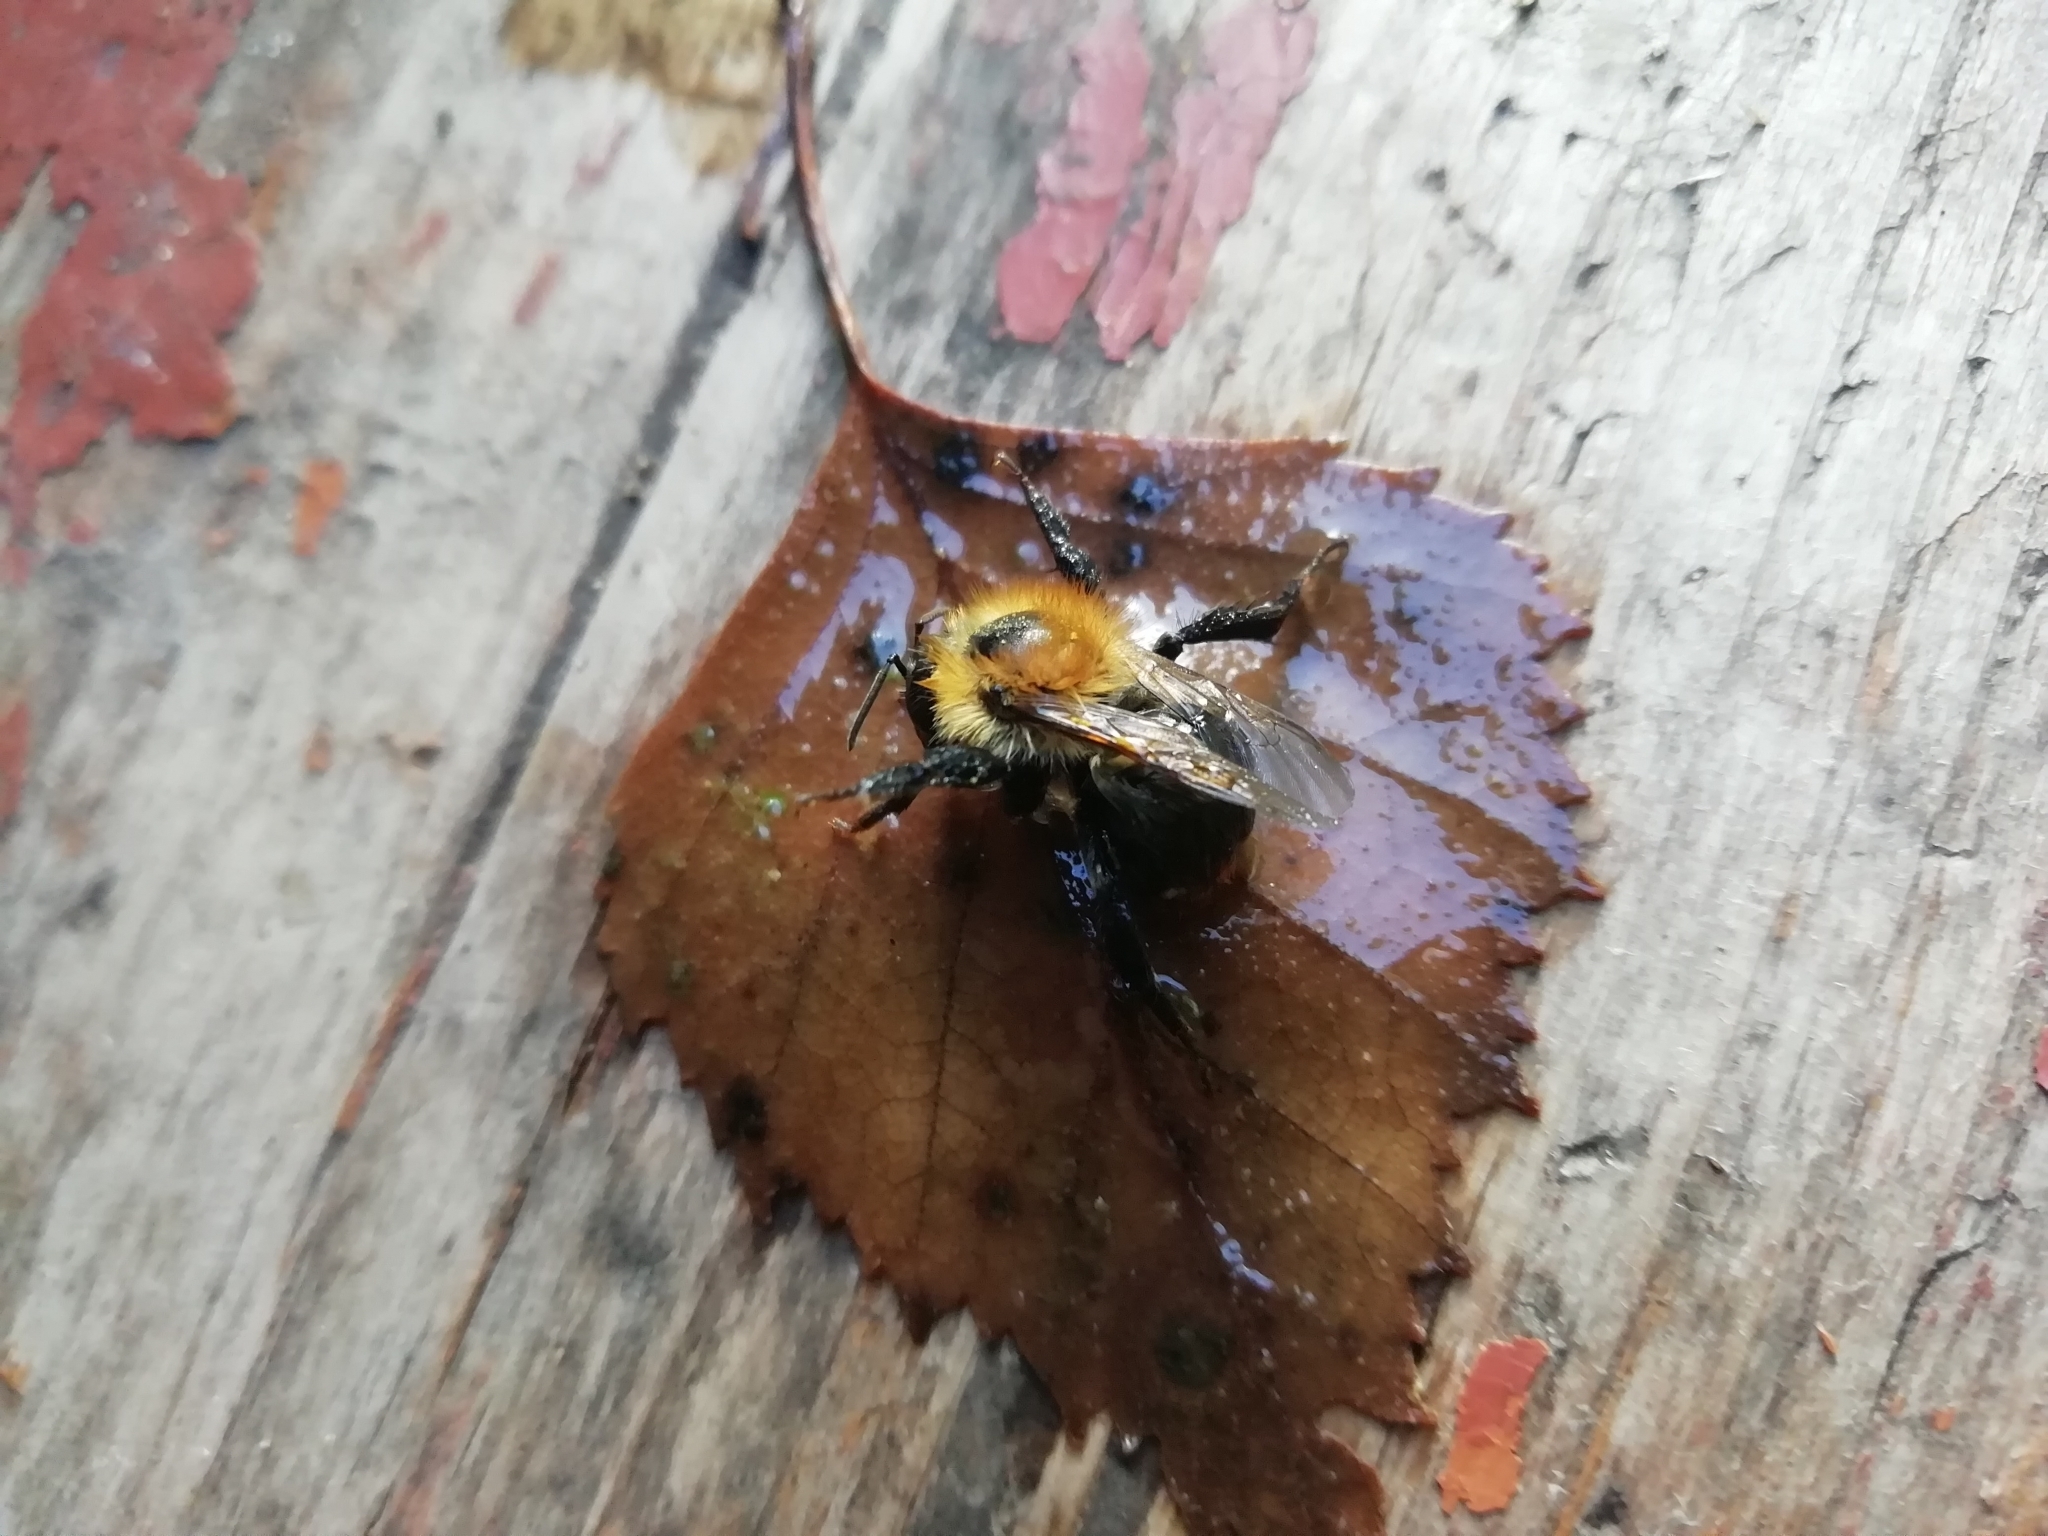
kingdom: Animalia
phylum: Arthropoda
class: Insecta
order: Hymenoptera
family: Apidae
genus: Bombus
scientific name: Bombus pascuorum
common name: Common carder bee
